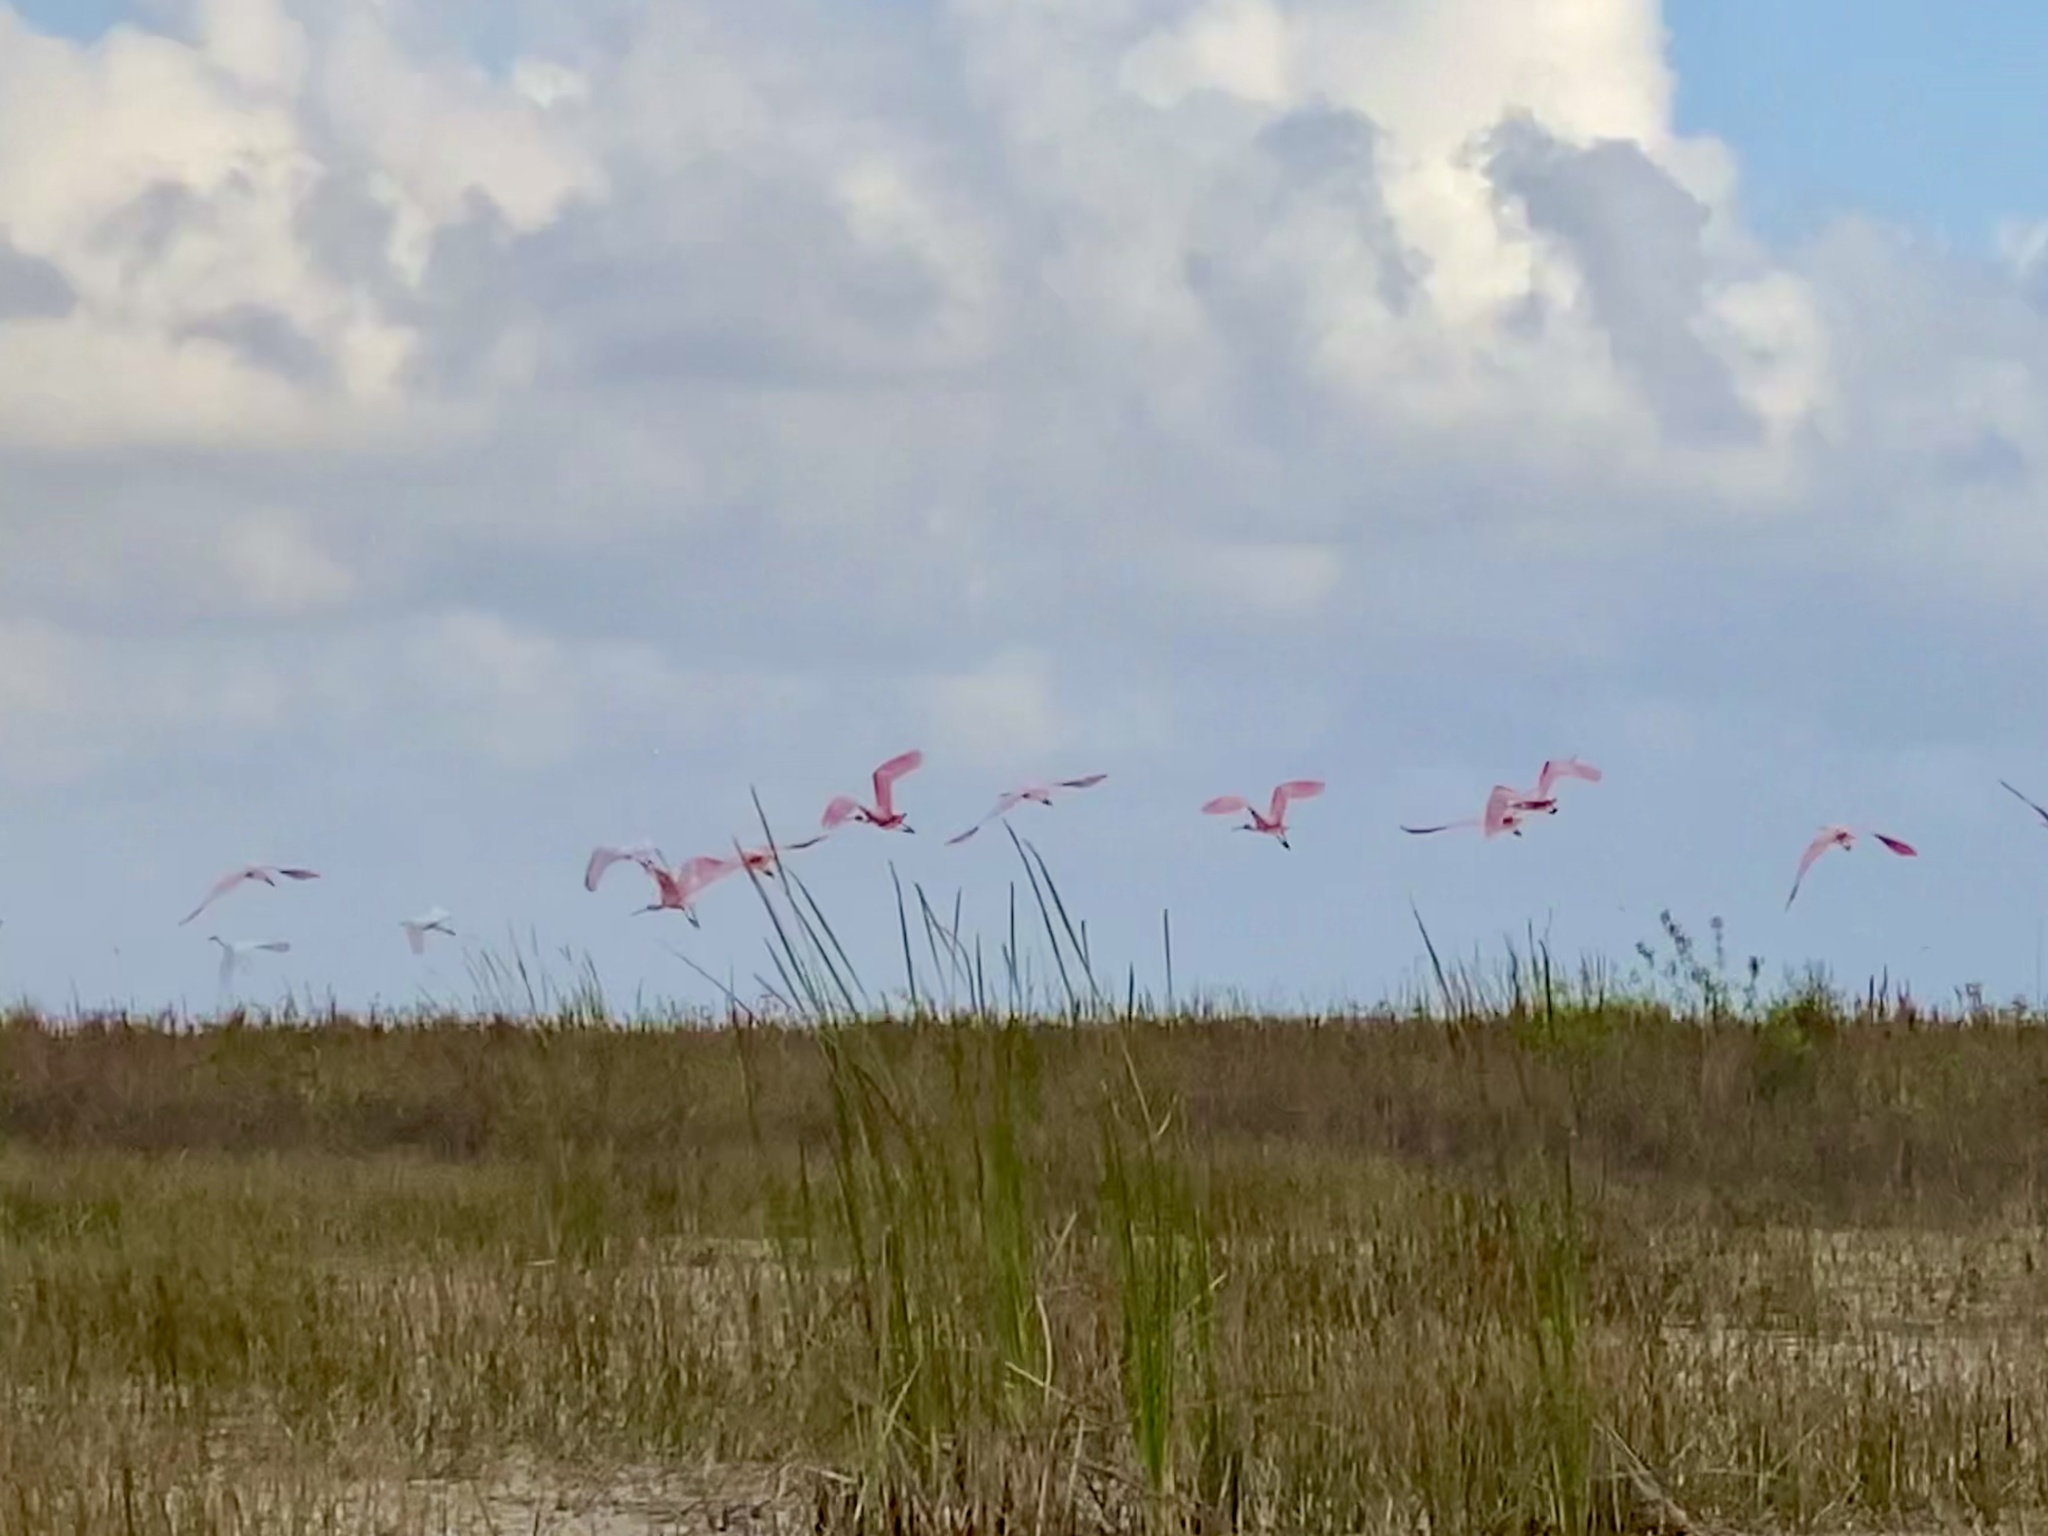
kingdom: Animalia
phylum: Chordata
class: Aves
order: Pelecaniformes
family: Threskiornithidae
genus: Platalea
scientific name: Platalea ajaja
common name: Roseate spoonbill
